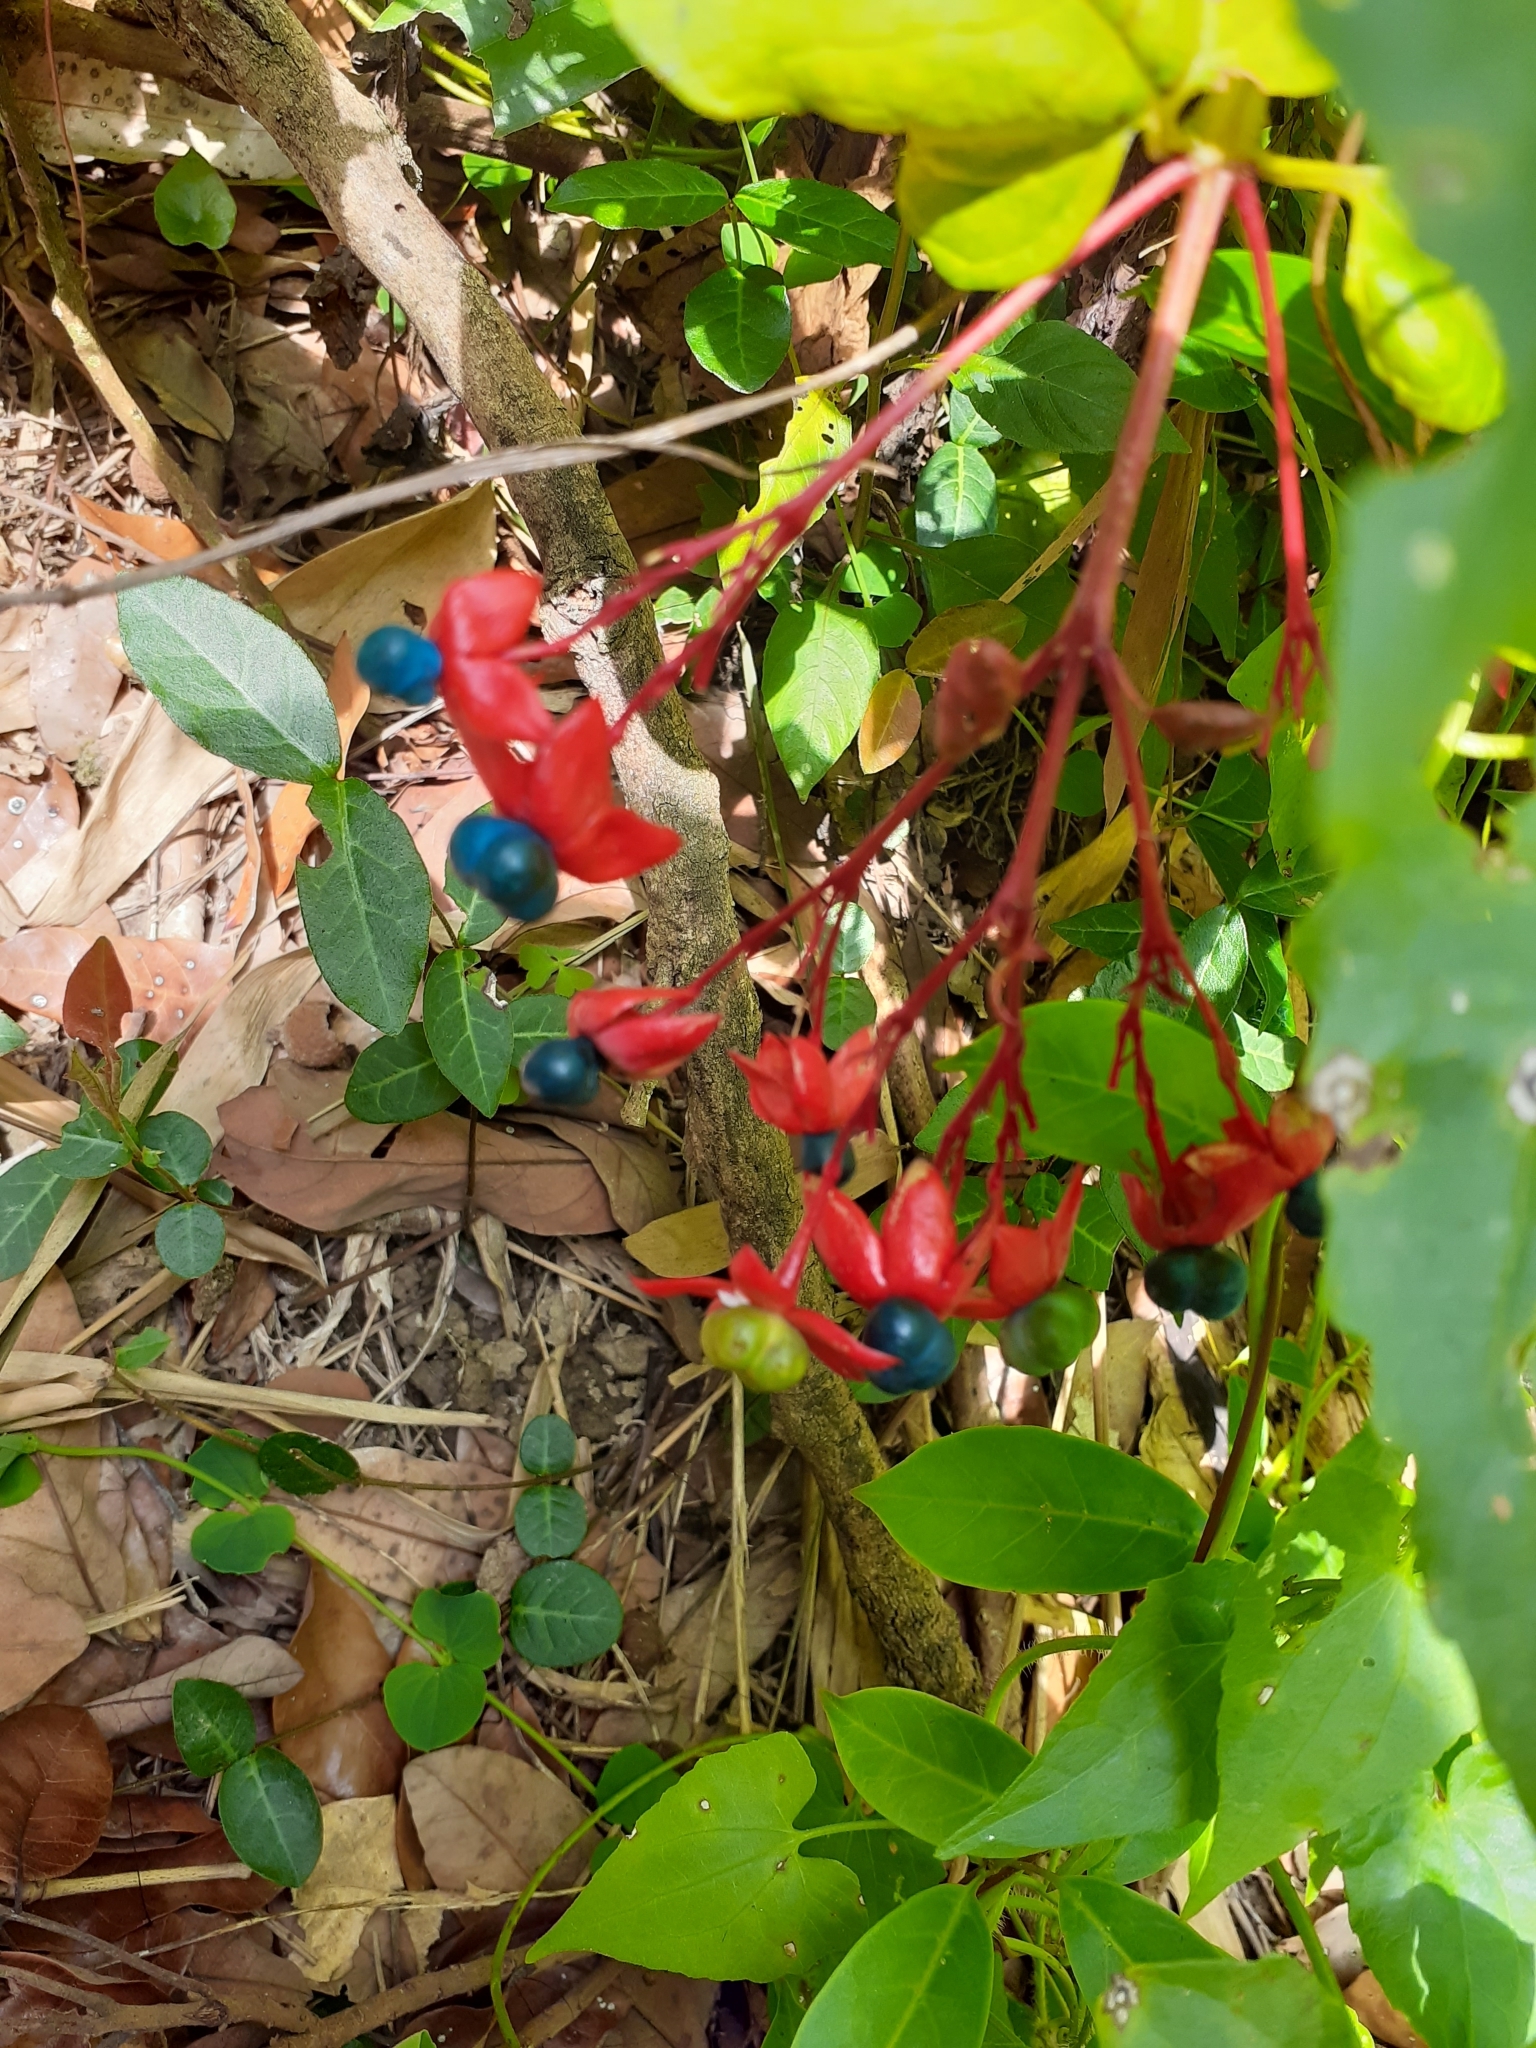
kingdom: Plantae
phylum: Tracheophyta
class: Magnoliopsida
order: Lamiales
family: Lamiaceae
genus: Clerodendrum
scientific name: Clerodendrum japonicum
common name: Japanese glorybower
